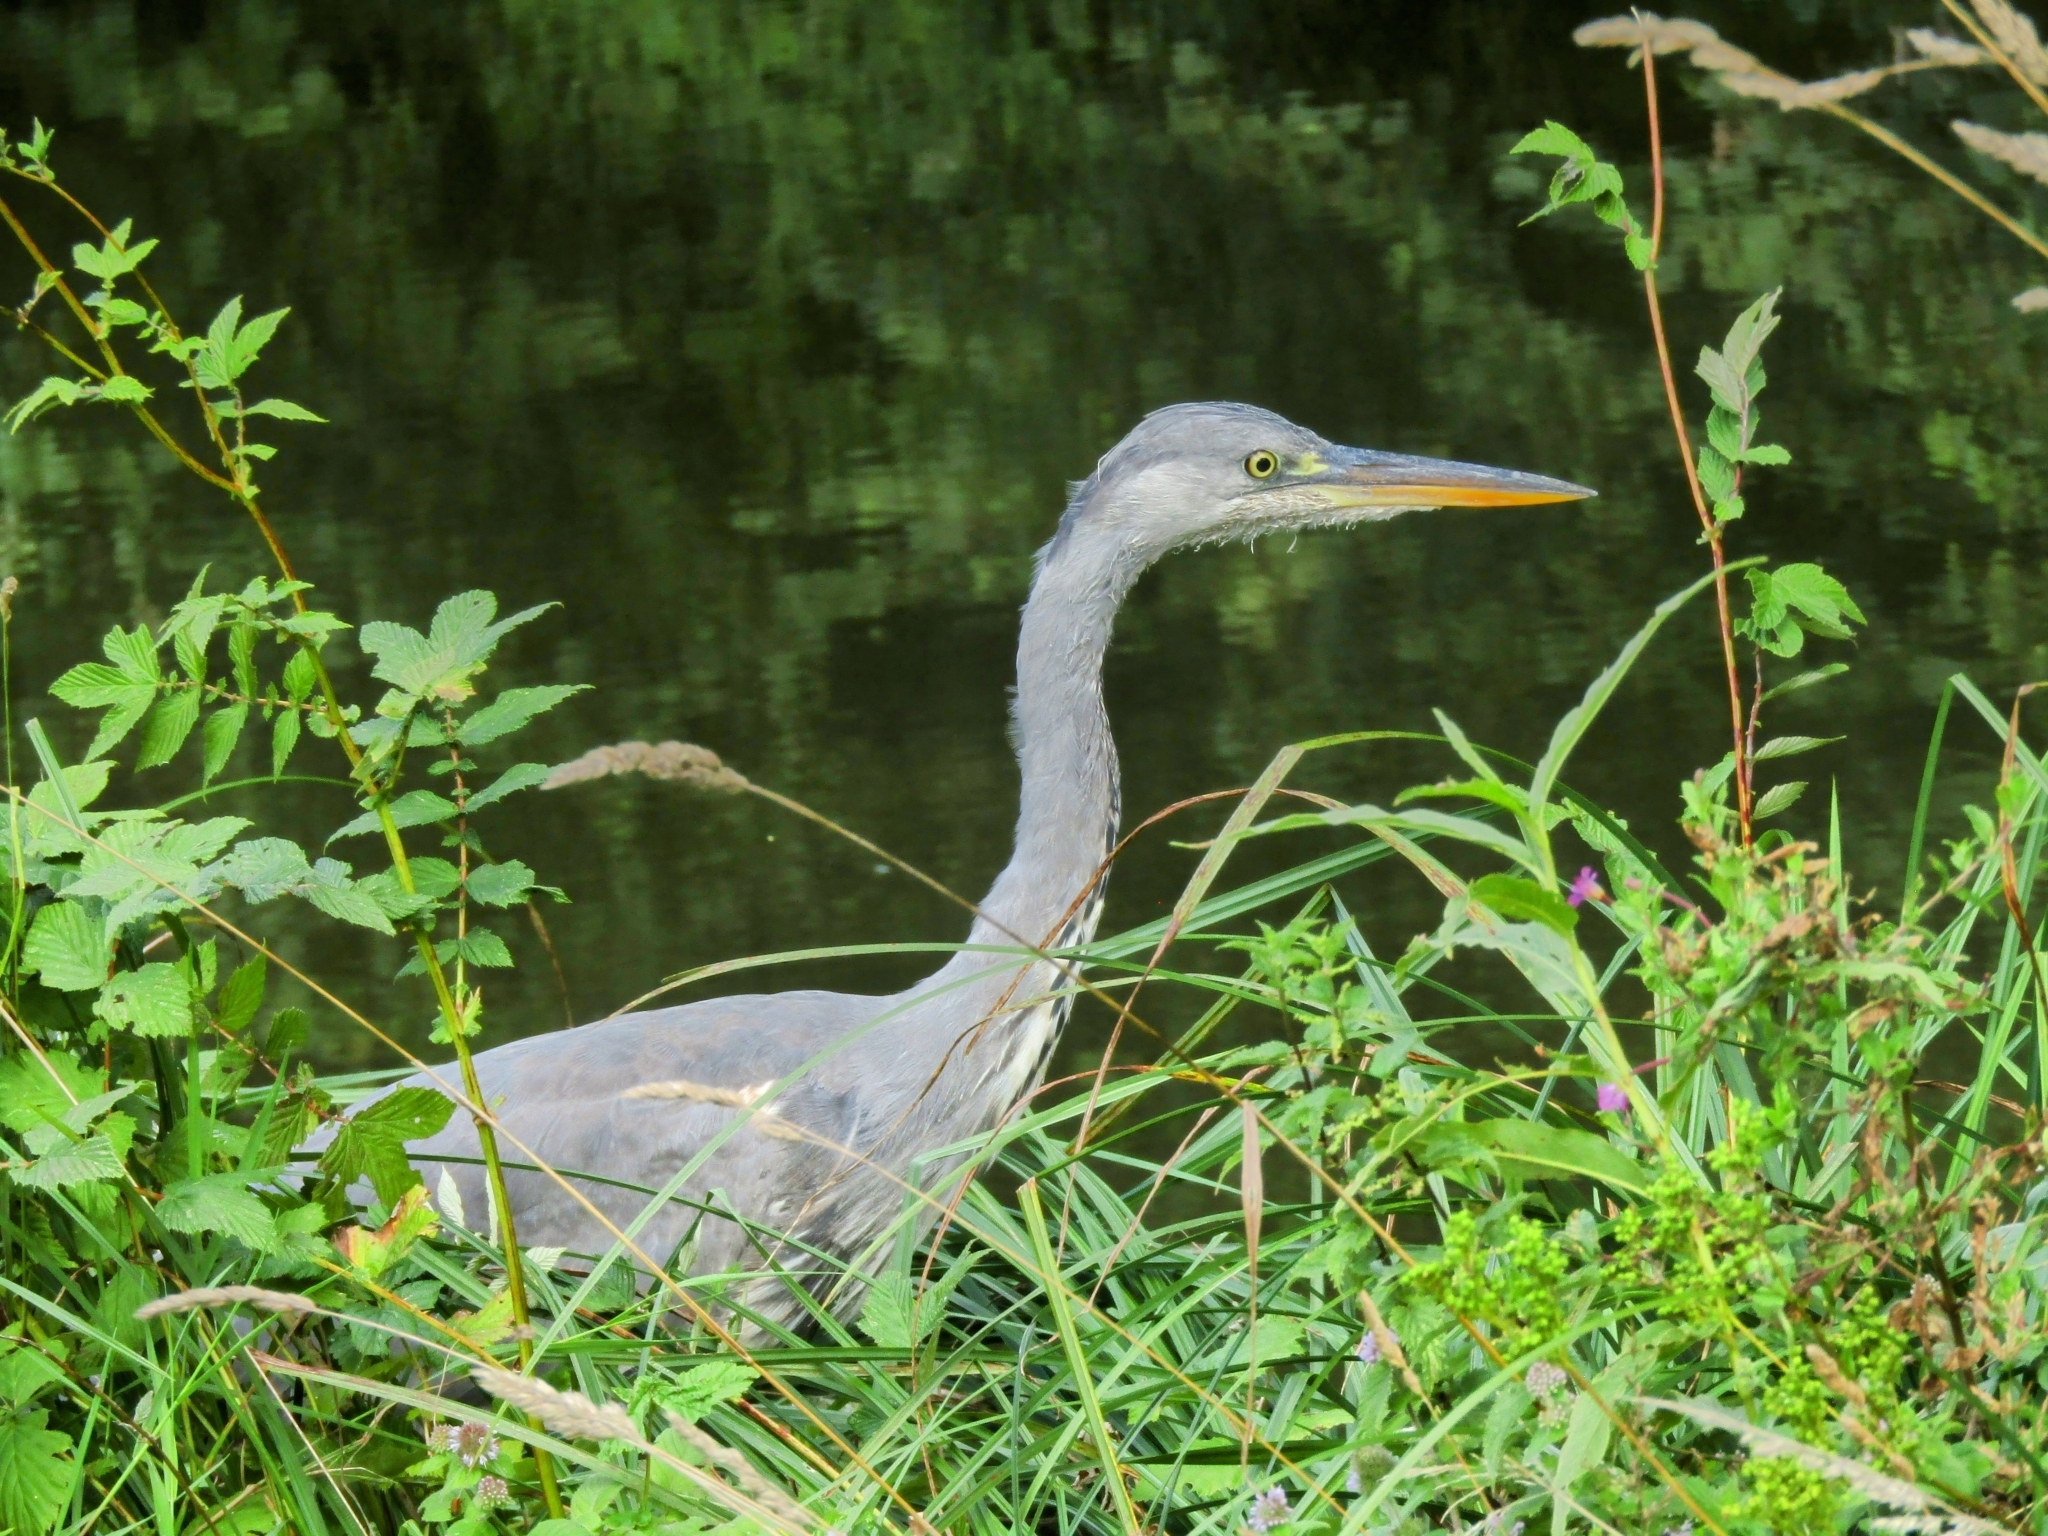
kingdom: Animalia
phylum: Chordata
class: Aves
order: Pelecaniformes
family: Ardeidae
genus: Ardea
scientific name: Ardea cinerea
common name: Grey heron
